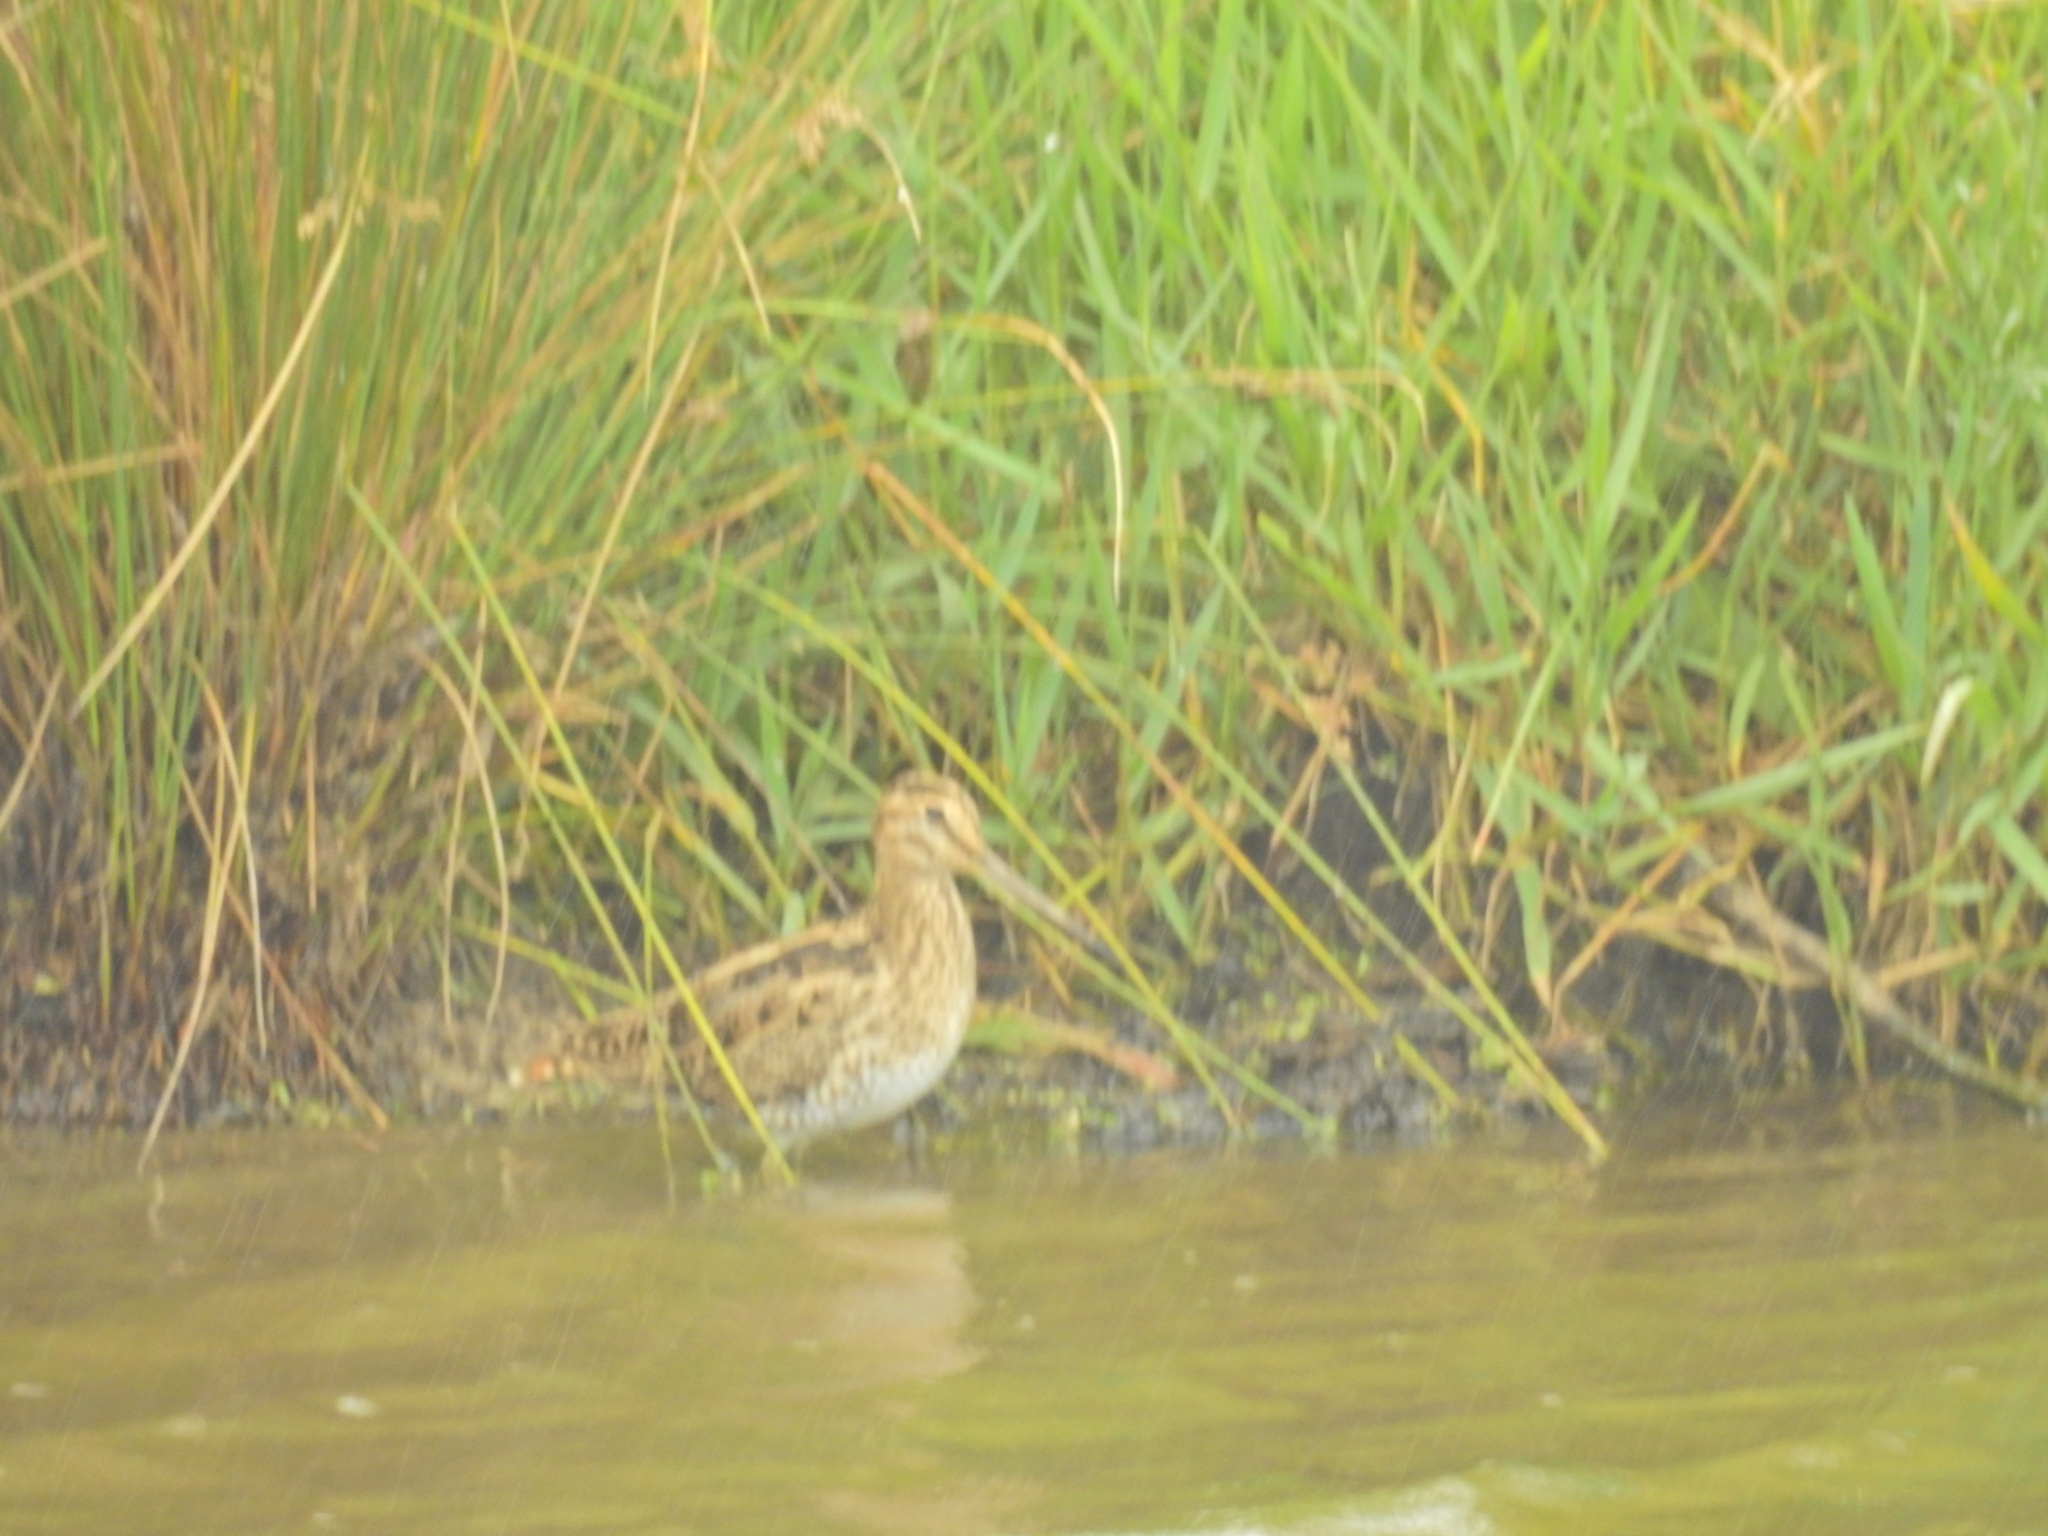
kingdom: Animalia
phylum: Chordata
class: Aves
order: Charadriiformes
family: Scolopacidae
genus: Gallinago
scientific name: Gallinago hardwickii
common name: Latham's snipe
